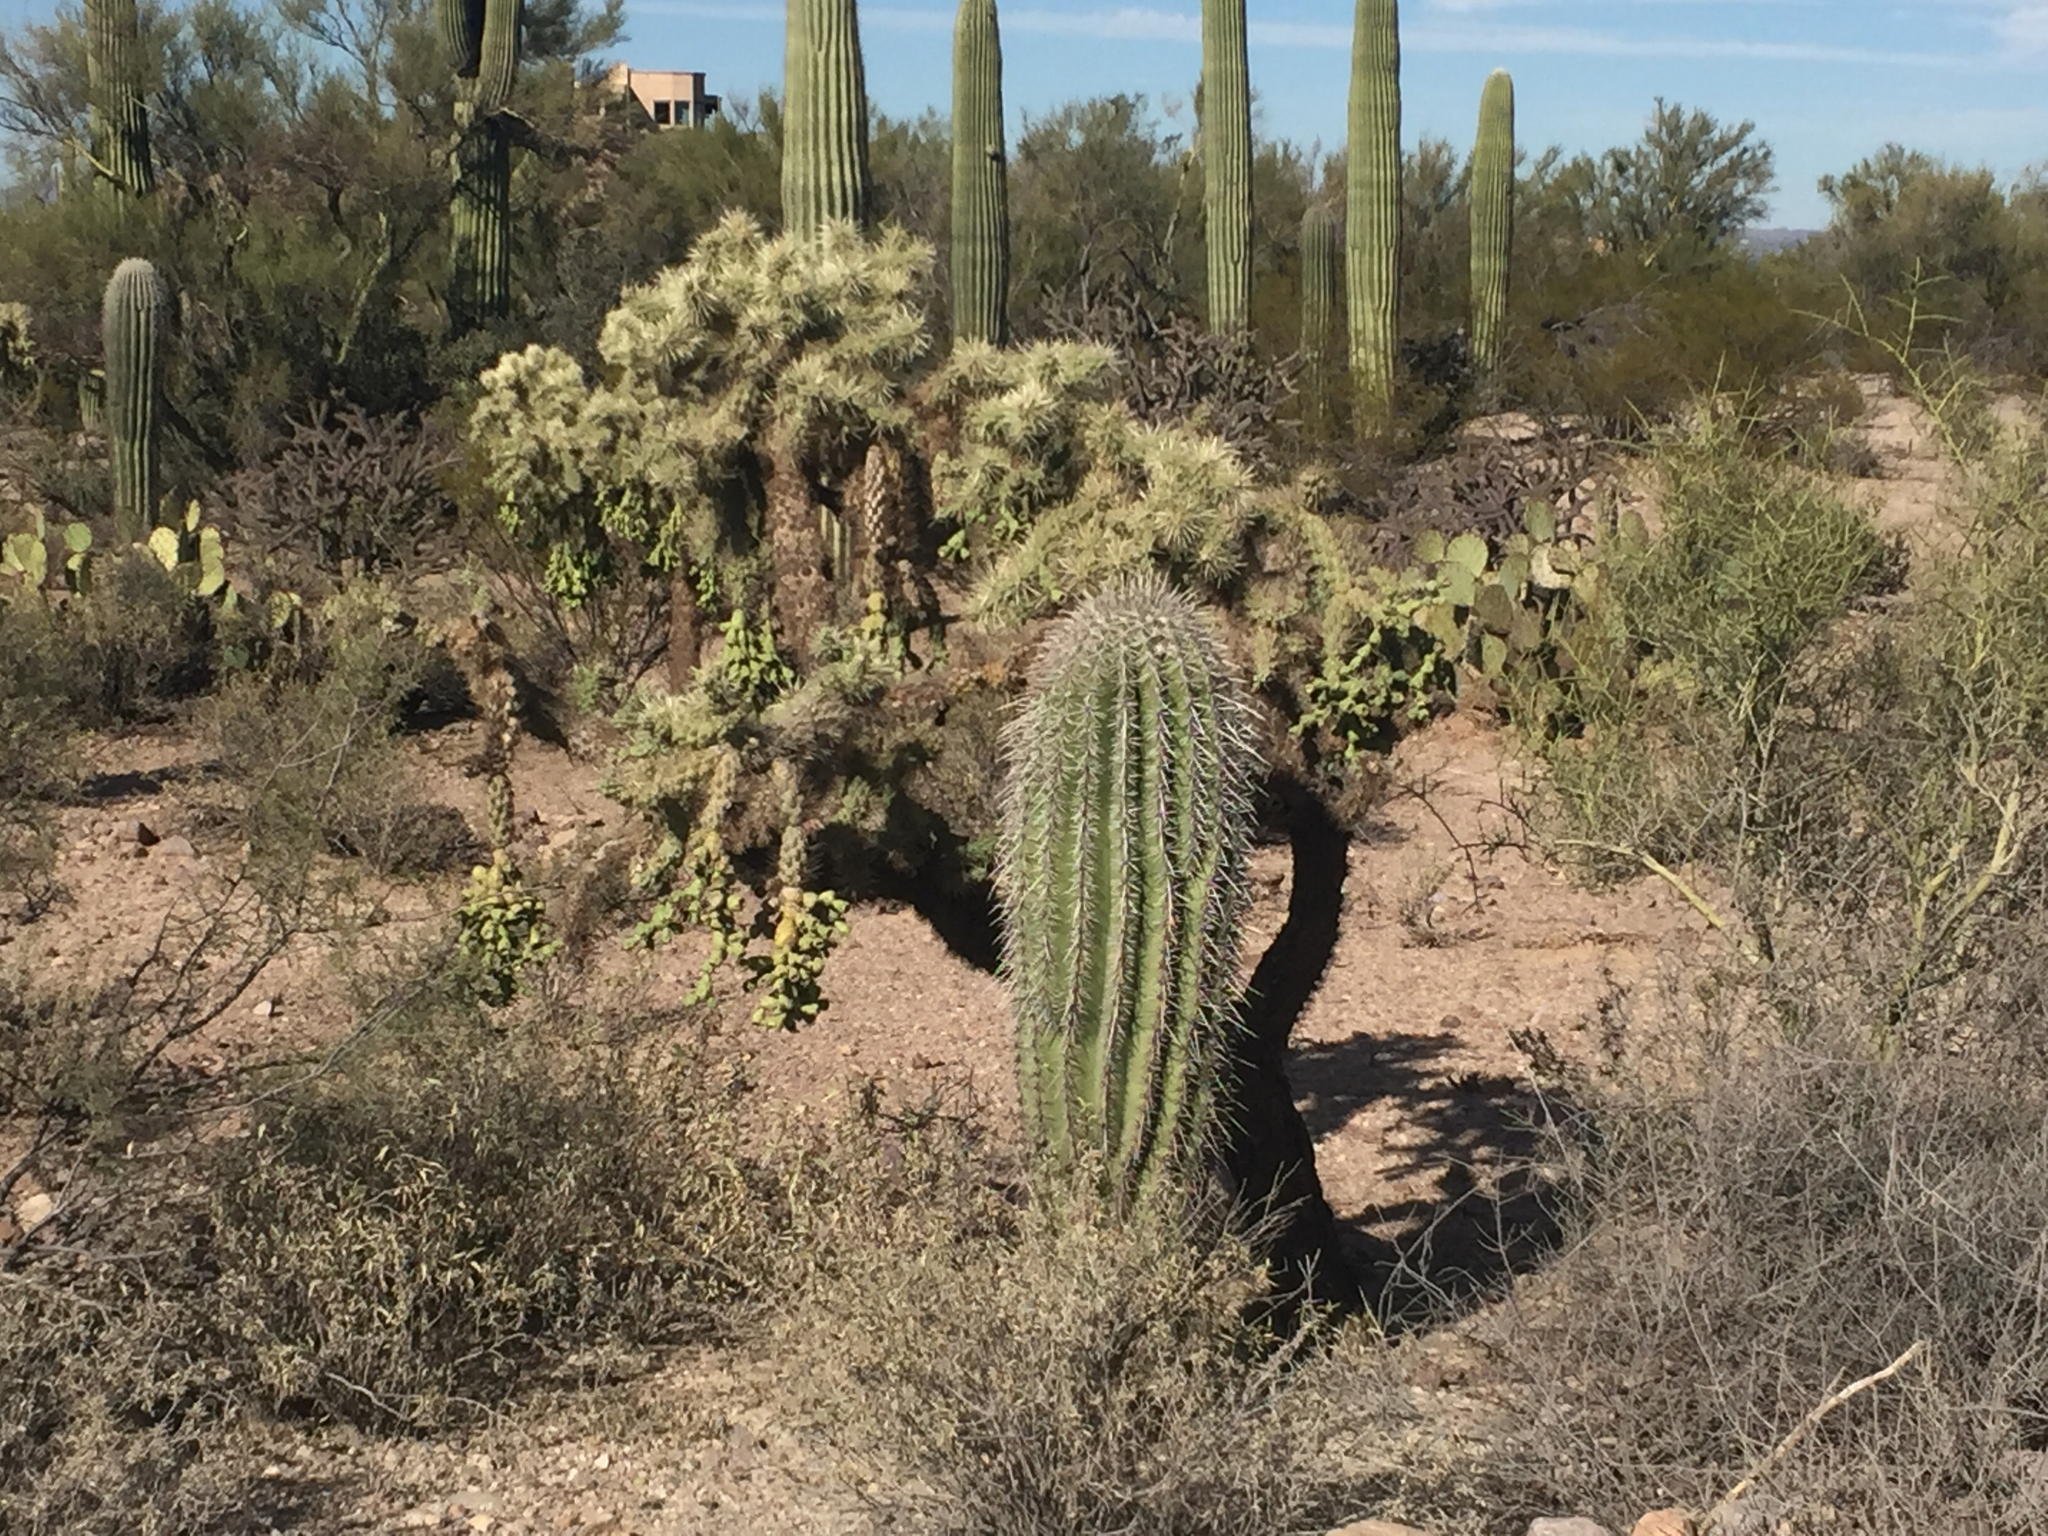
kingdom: Plantae
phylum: Tracheophyta
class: Magnoliopsida
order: Caryophyllales
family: Cactaceae
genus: Carnegiea
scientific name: Carnegiea gigantea
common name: Saguaro
